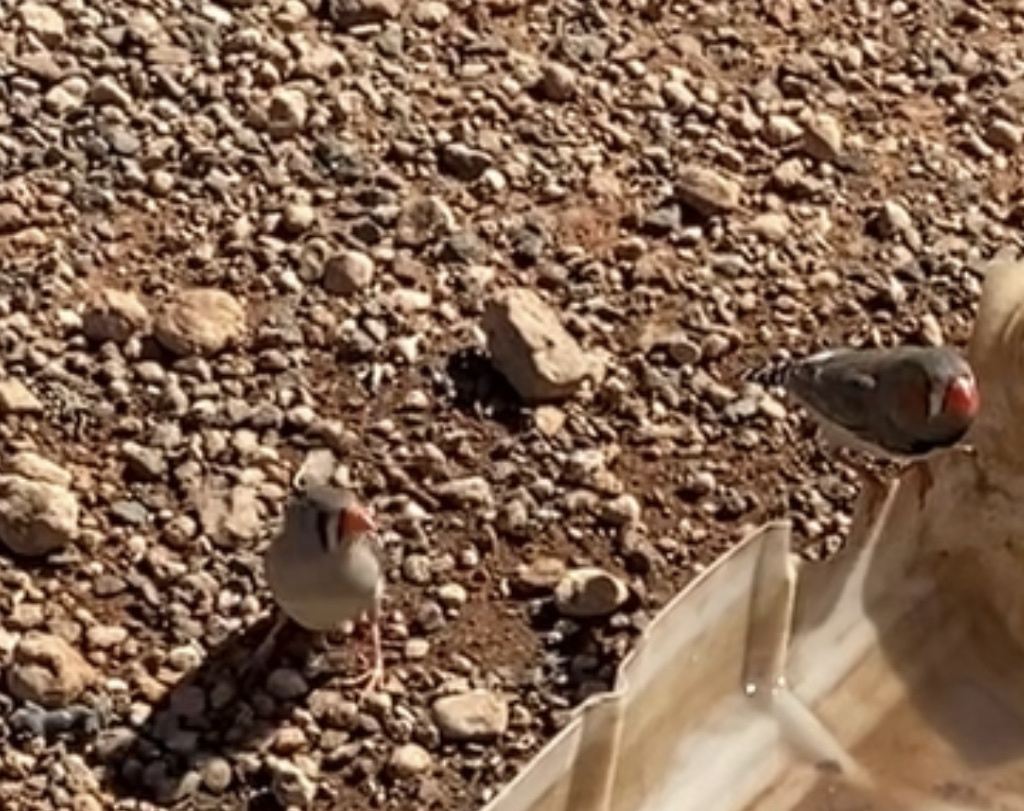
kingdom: Animalia
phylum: Chordata
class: Aves
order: Passeriformes
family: Estrildidae
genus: Taeniopygia
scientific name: Taeniopygia guttata
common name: Zebra finch
